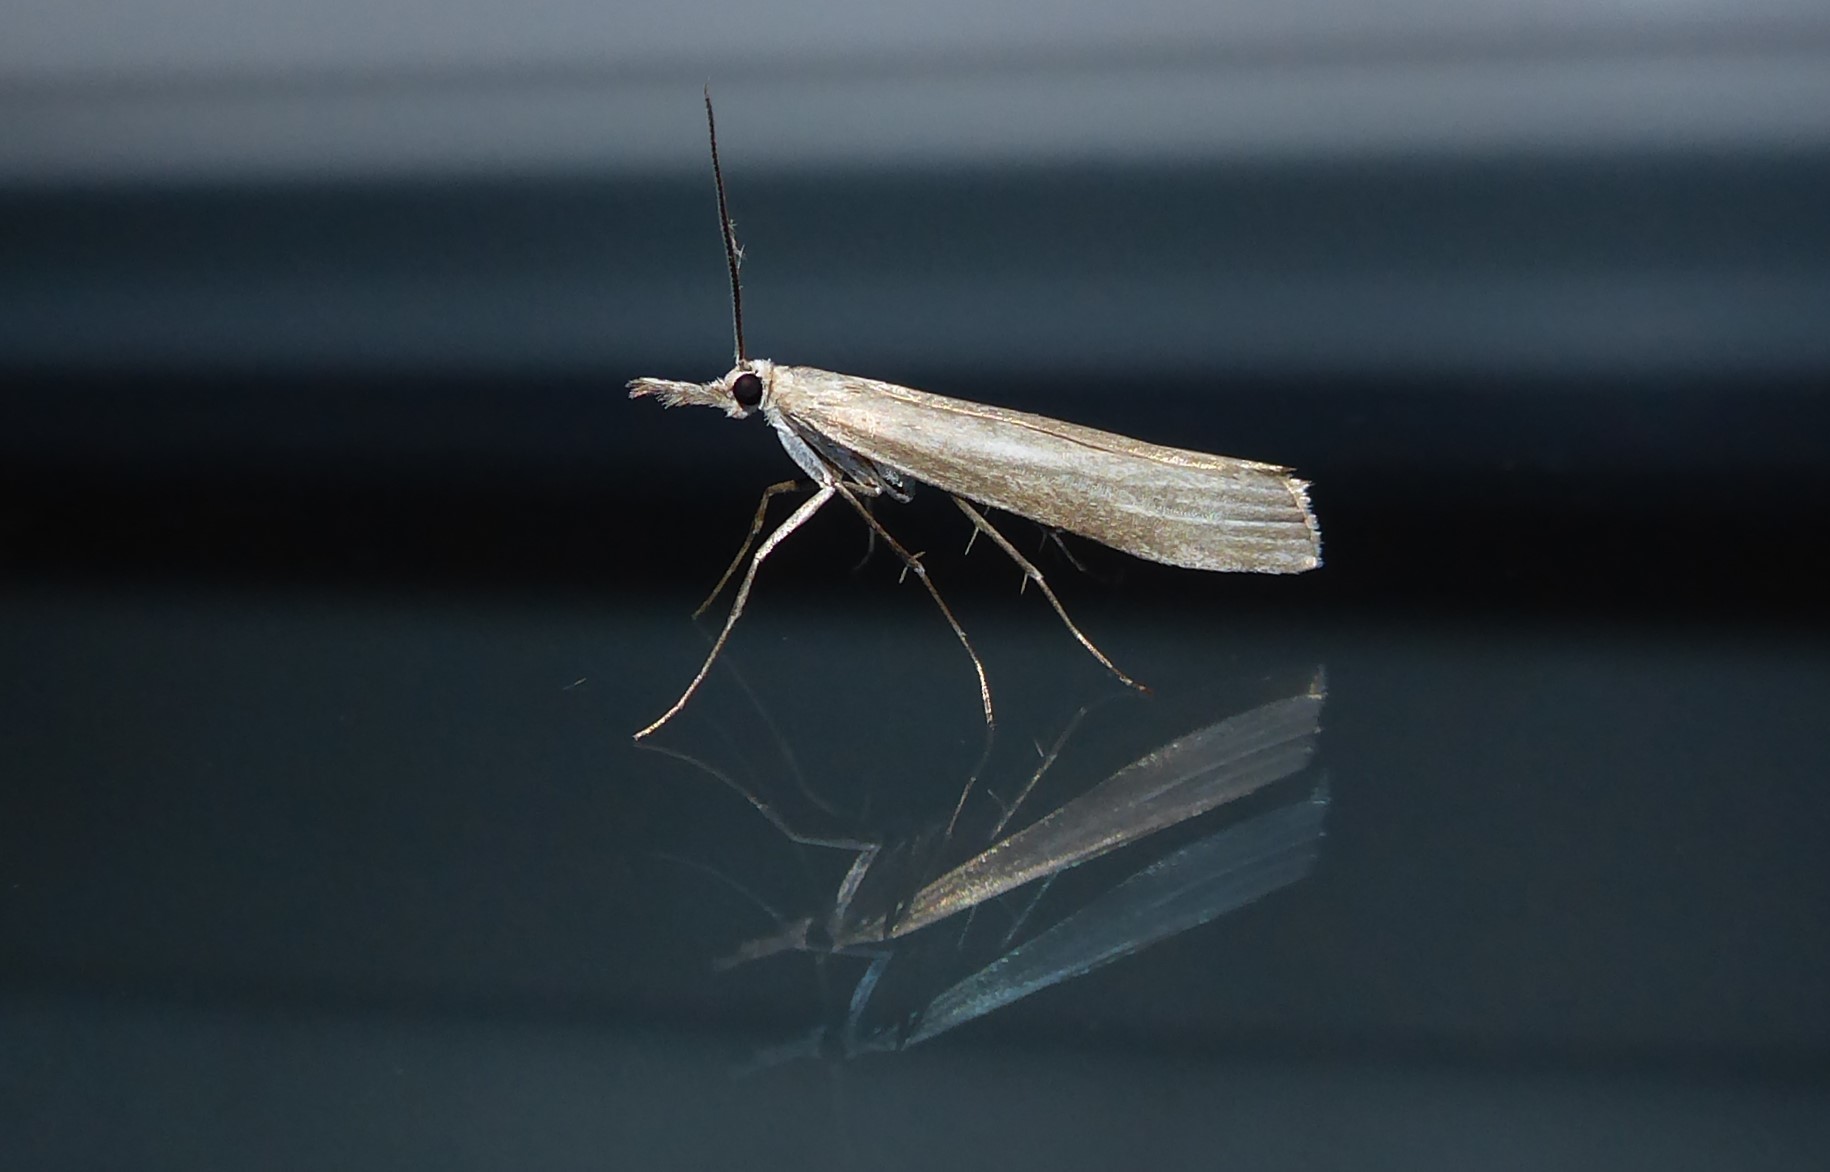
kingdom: Animalia
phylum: Arthropoda
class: Insecta
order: Lepidoptera
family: Crambidae
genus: Orocrambus
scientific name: Orocrambus cyclopicus
